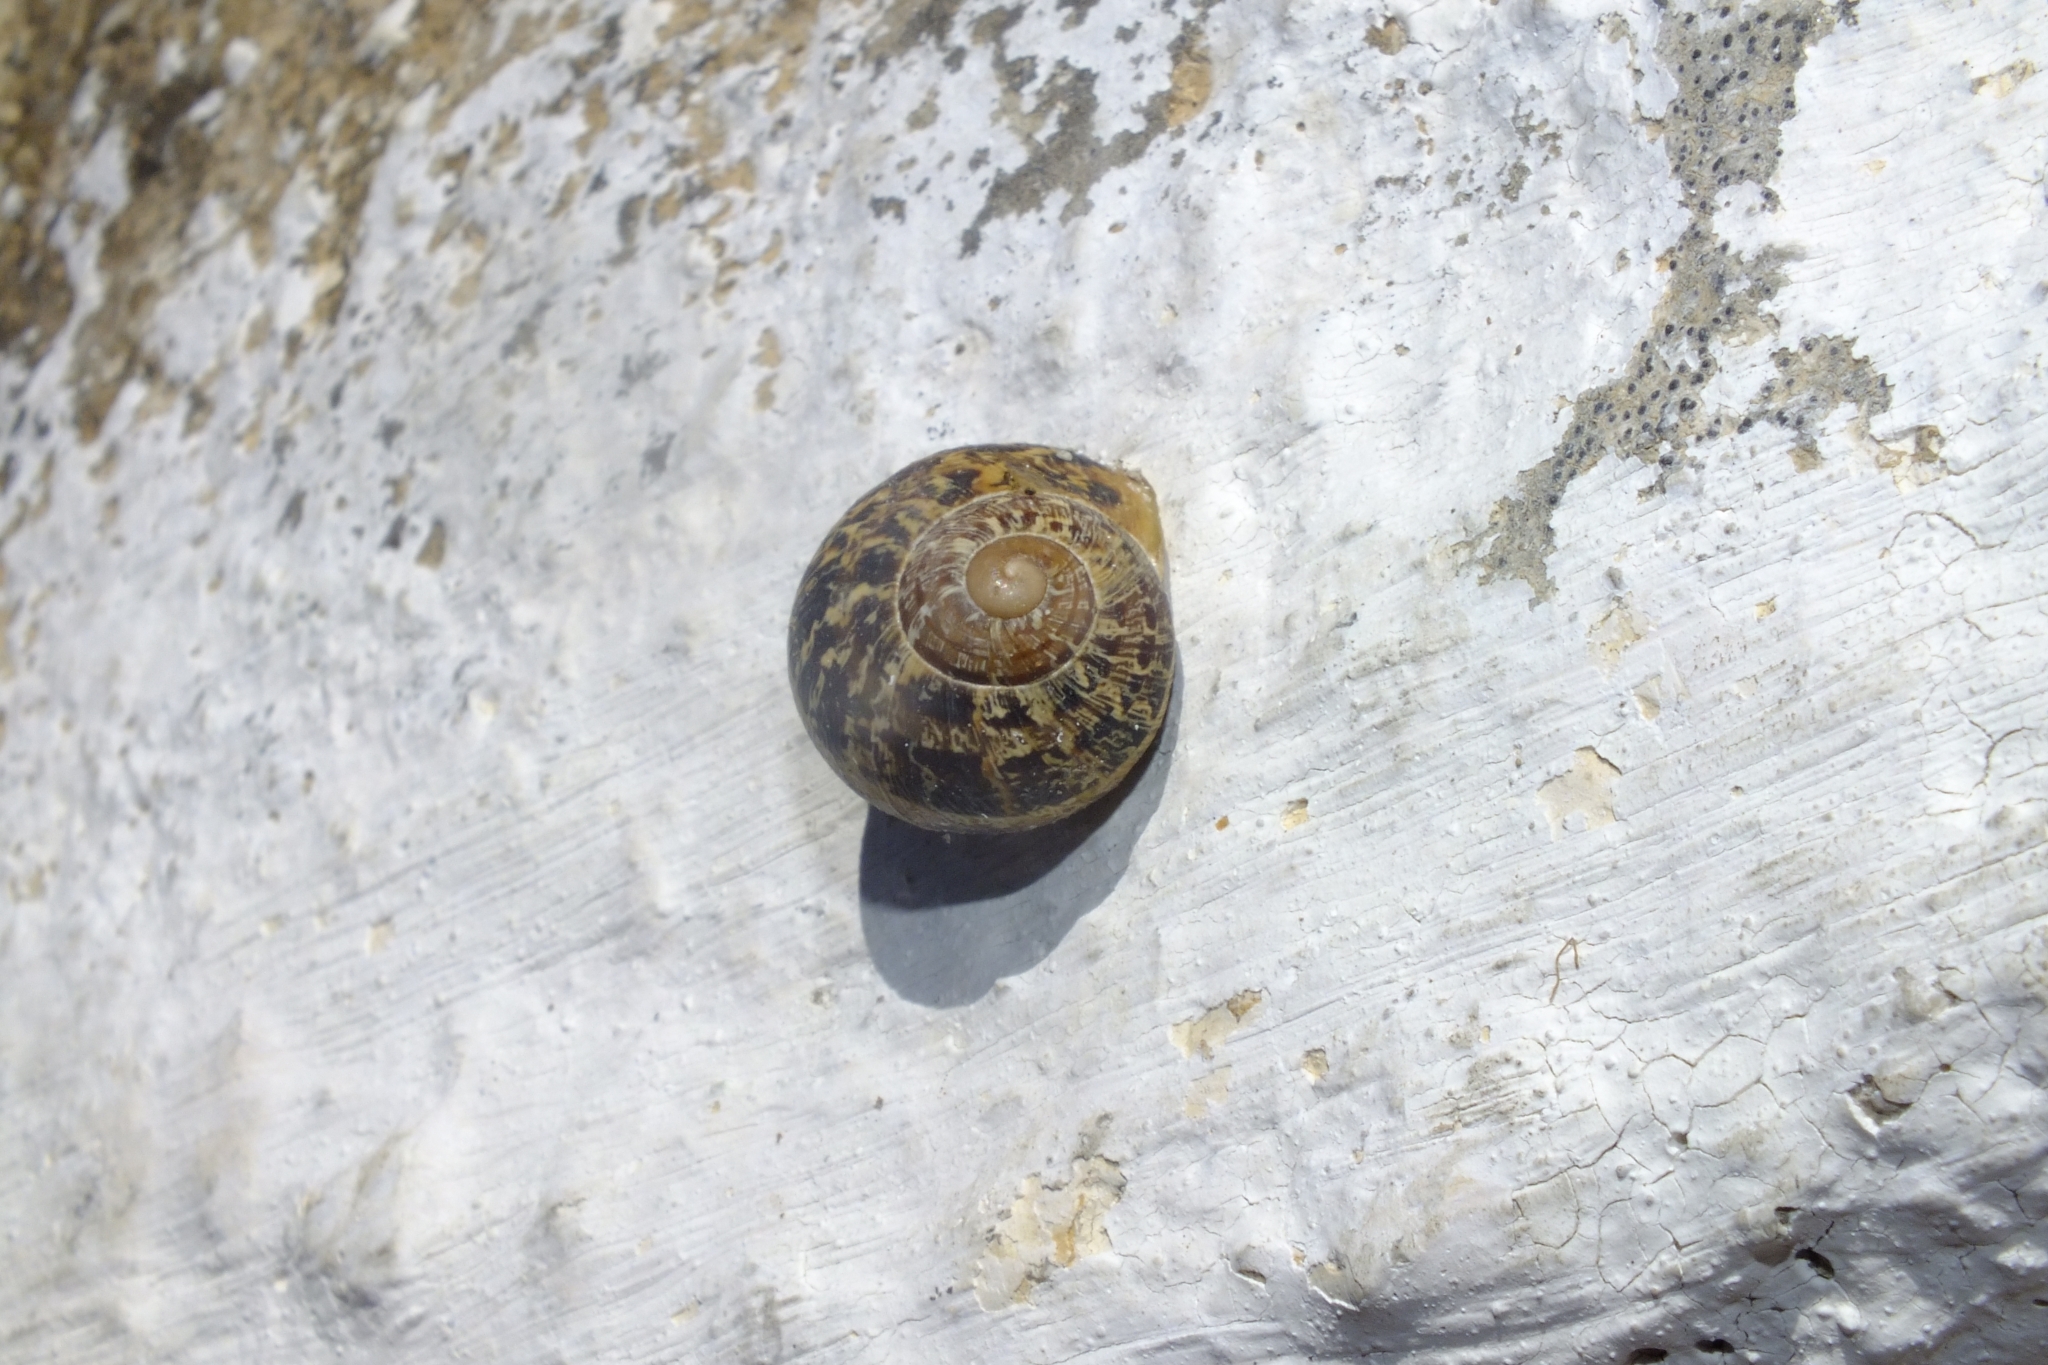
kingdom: Animalia
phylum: Mollusca
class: Gastropoda
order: Stylommatophora
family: Helicidae
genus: Eobania
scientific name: Eobania vermiculata
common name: Chocolateband snail
